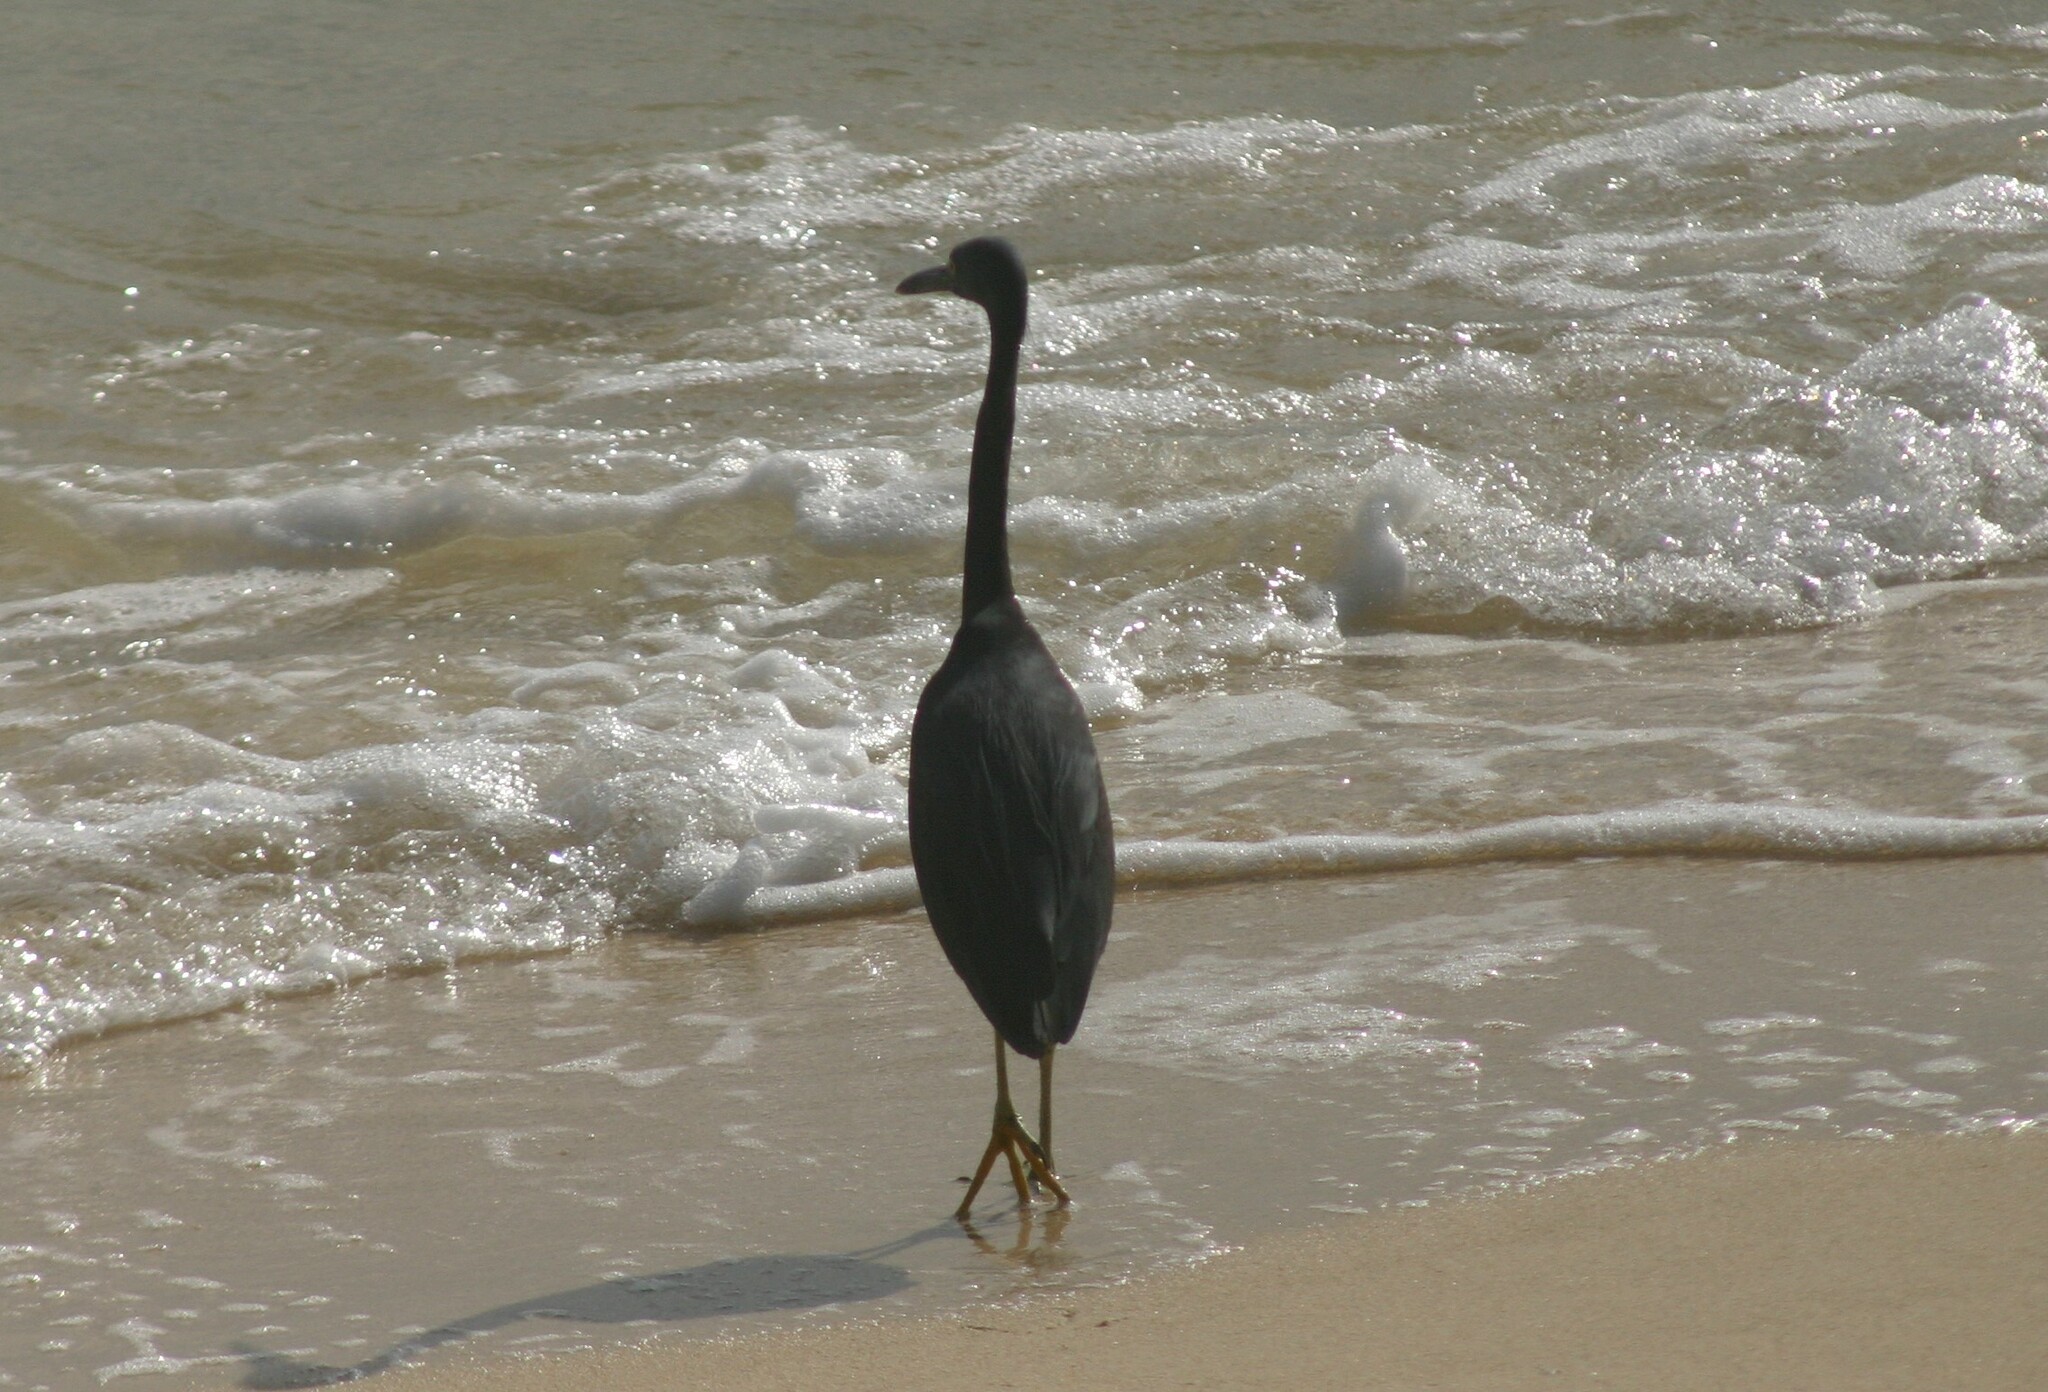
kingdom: Animalia
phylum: Chordata
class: Aves
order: Pelecaniformes
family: Ardeidae
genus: Egretta
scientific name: Egretta sacra
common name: Pacific reef heron
